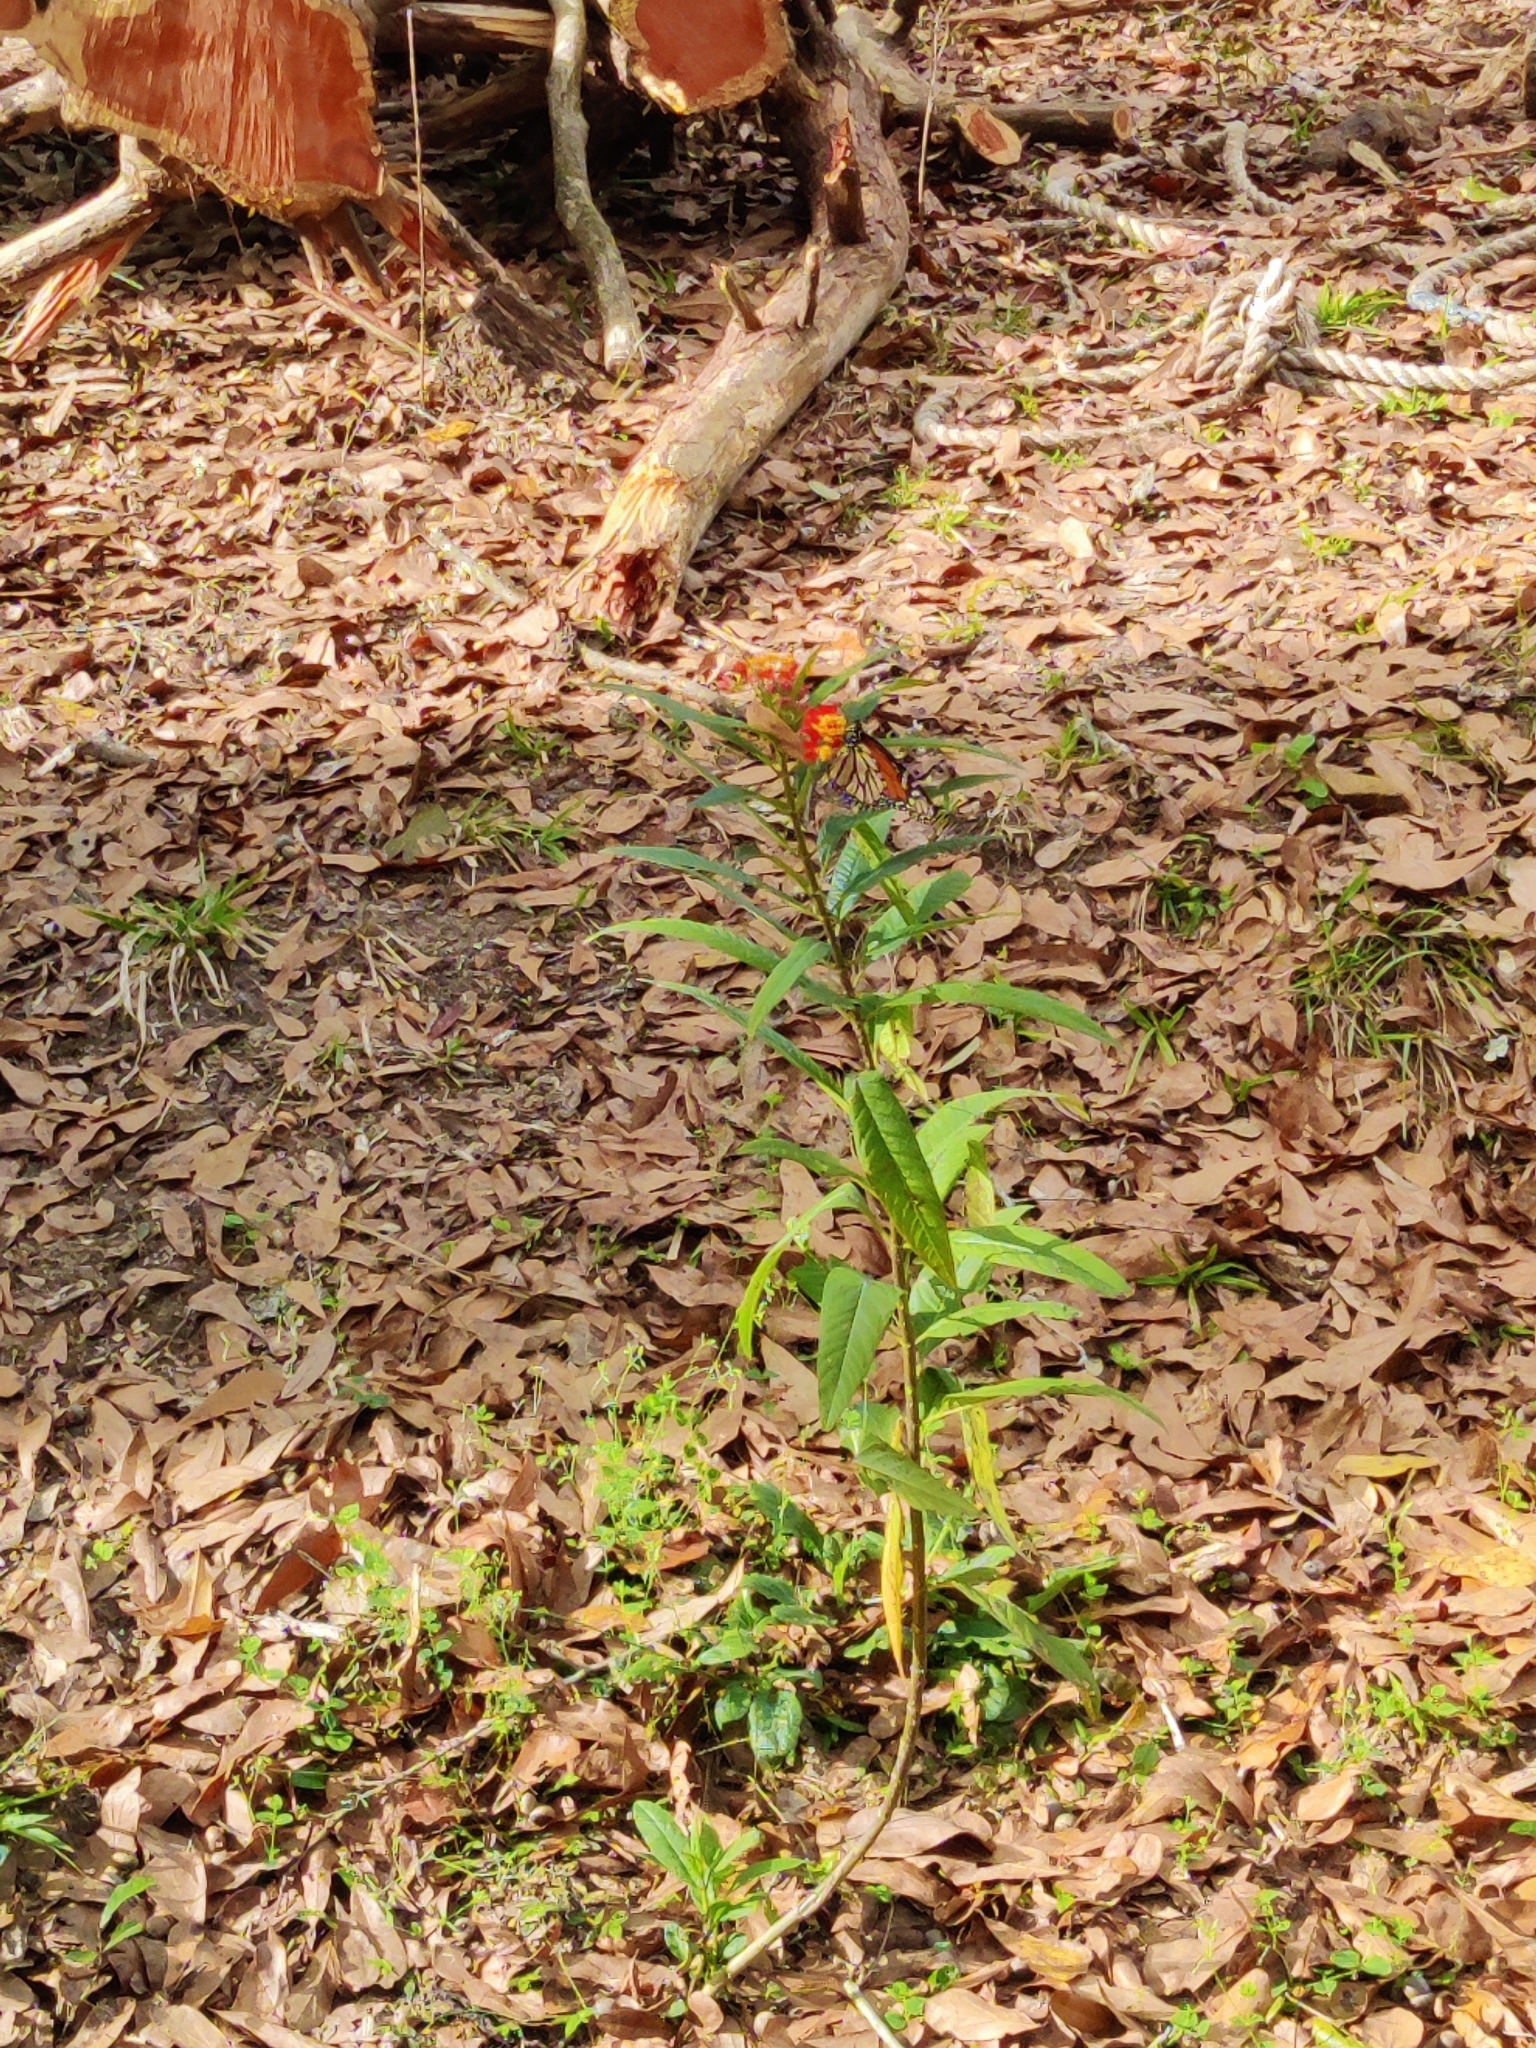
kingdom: Animalia
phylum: Arthropoda
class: Insecta
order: Lepidoptera
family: Nymphalidae
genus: Danaus
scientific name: Danaus plexippus
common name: Monarch
